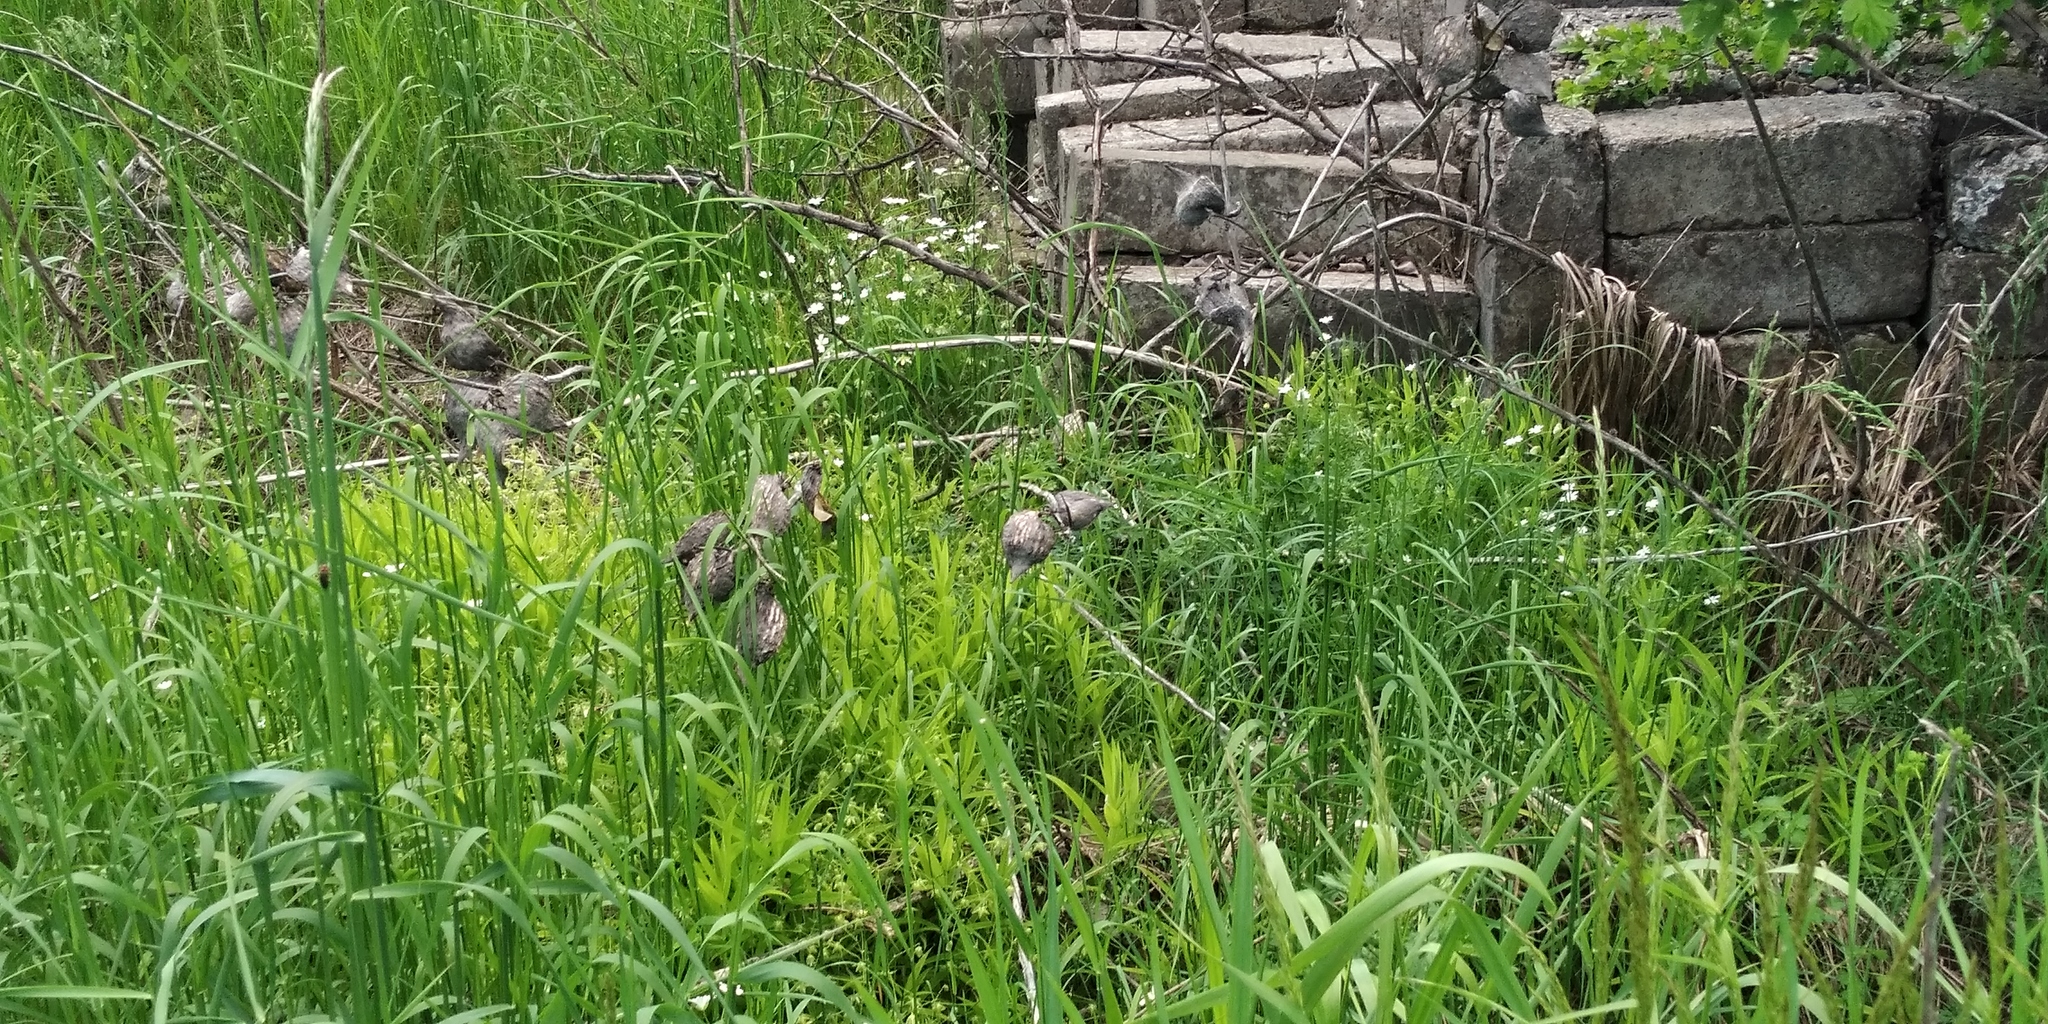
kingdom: Plantae
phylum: Tracheophyta
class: Magnoliopsida
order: Gentianales
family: Apocynaceae
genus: Asclepias
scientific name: Asclepias syriaca
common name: Common milkweed
